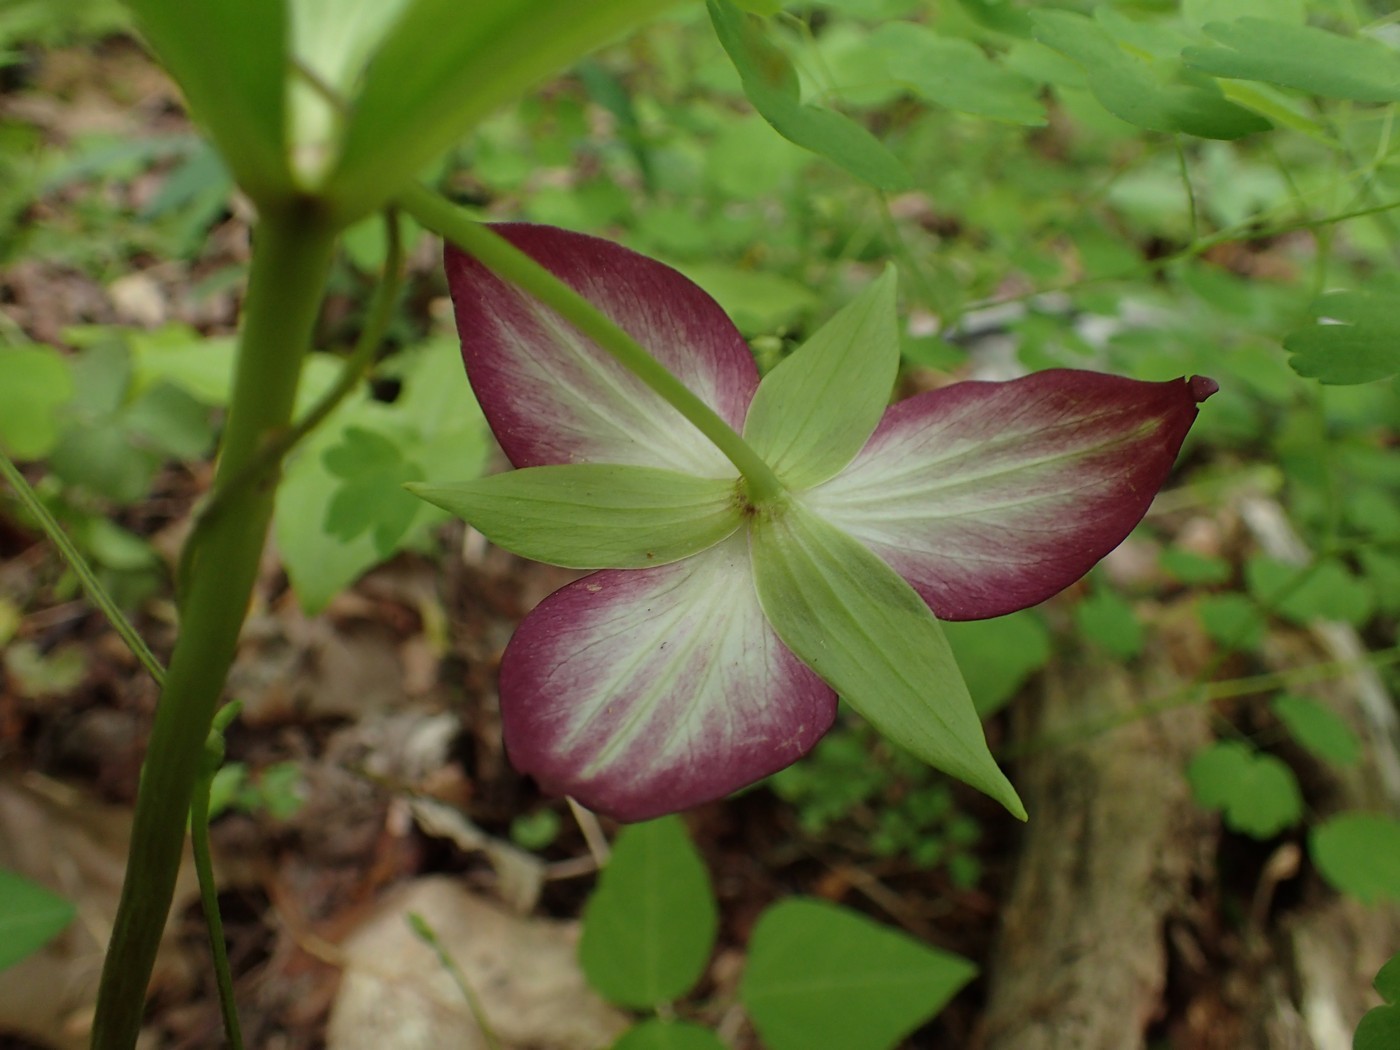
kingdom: Plantae
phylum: Tracheophyta
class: Liliopsida
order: Liliales
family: Melanthiaceae
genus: Trillium
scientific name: Trillium vaseyi
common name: Sweet trillium
